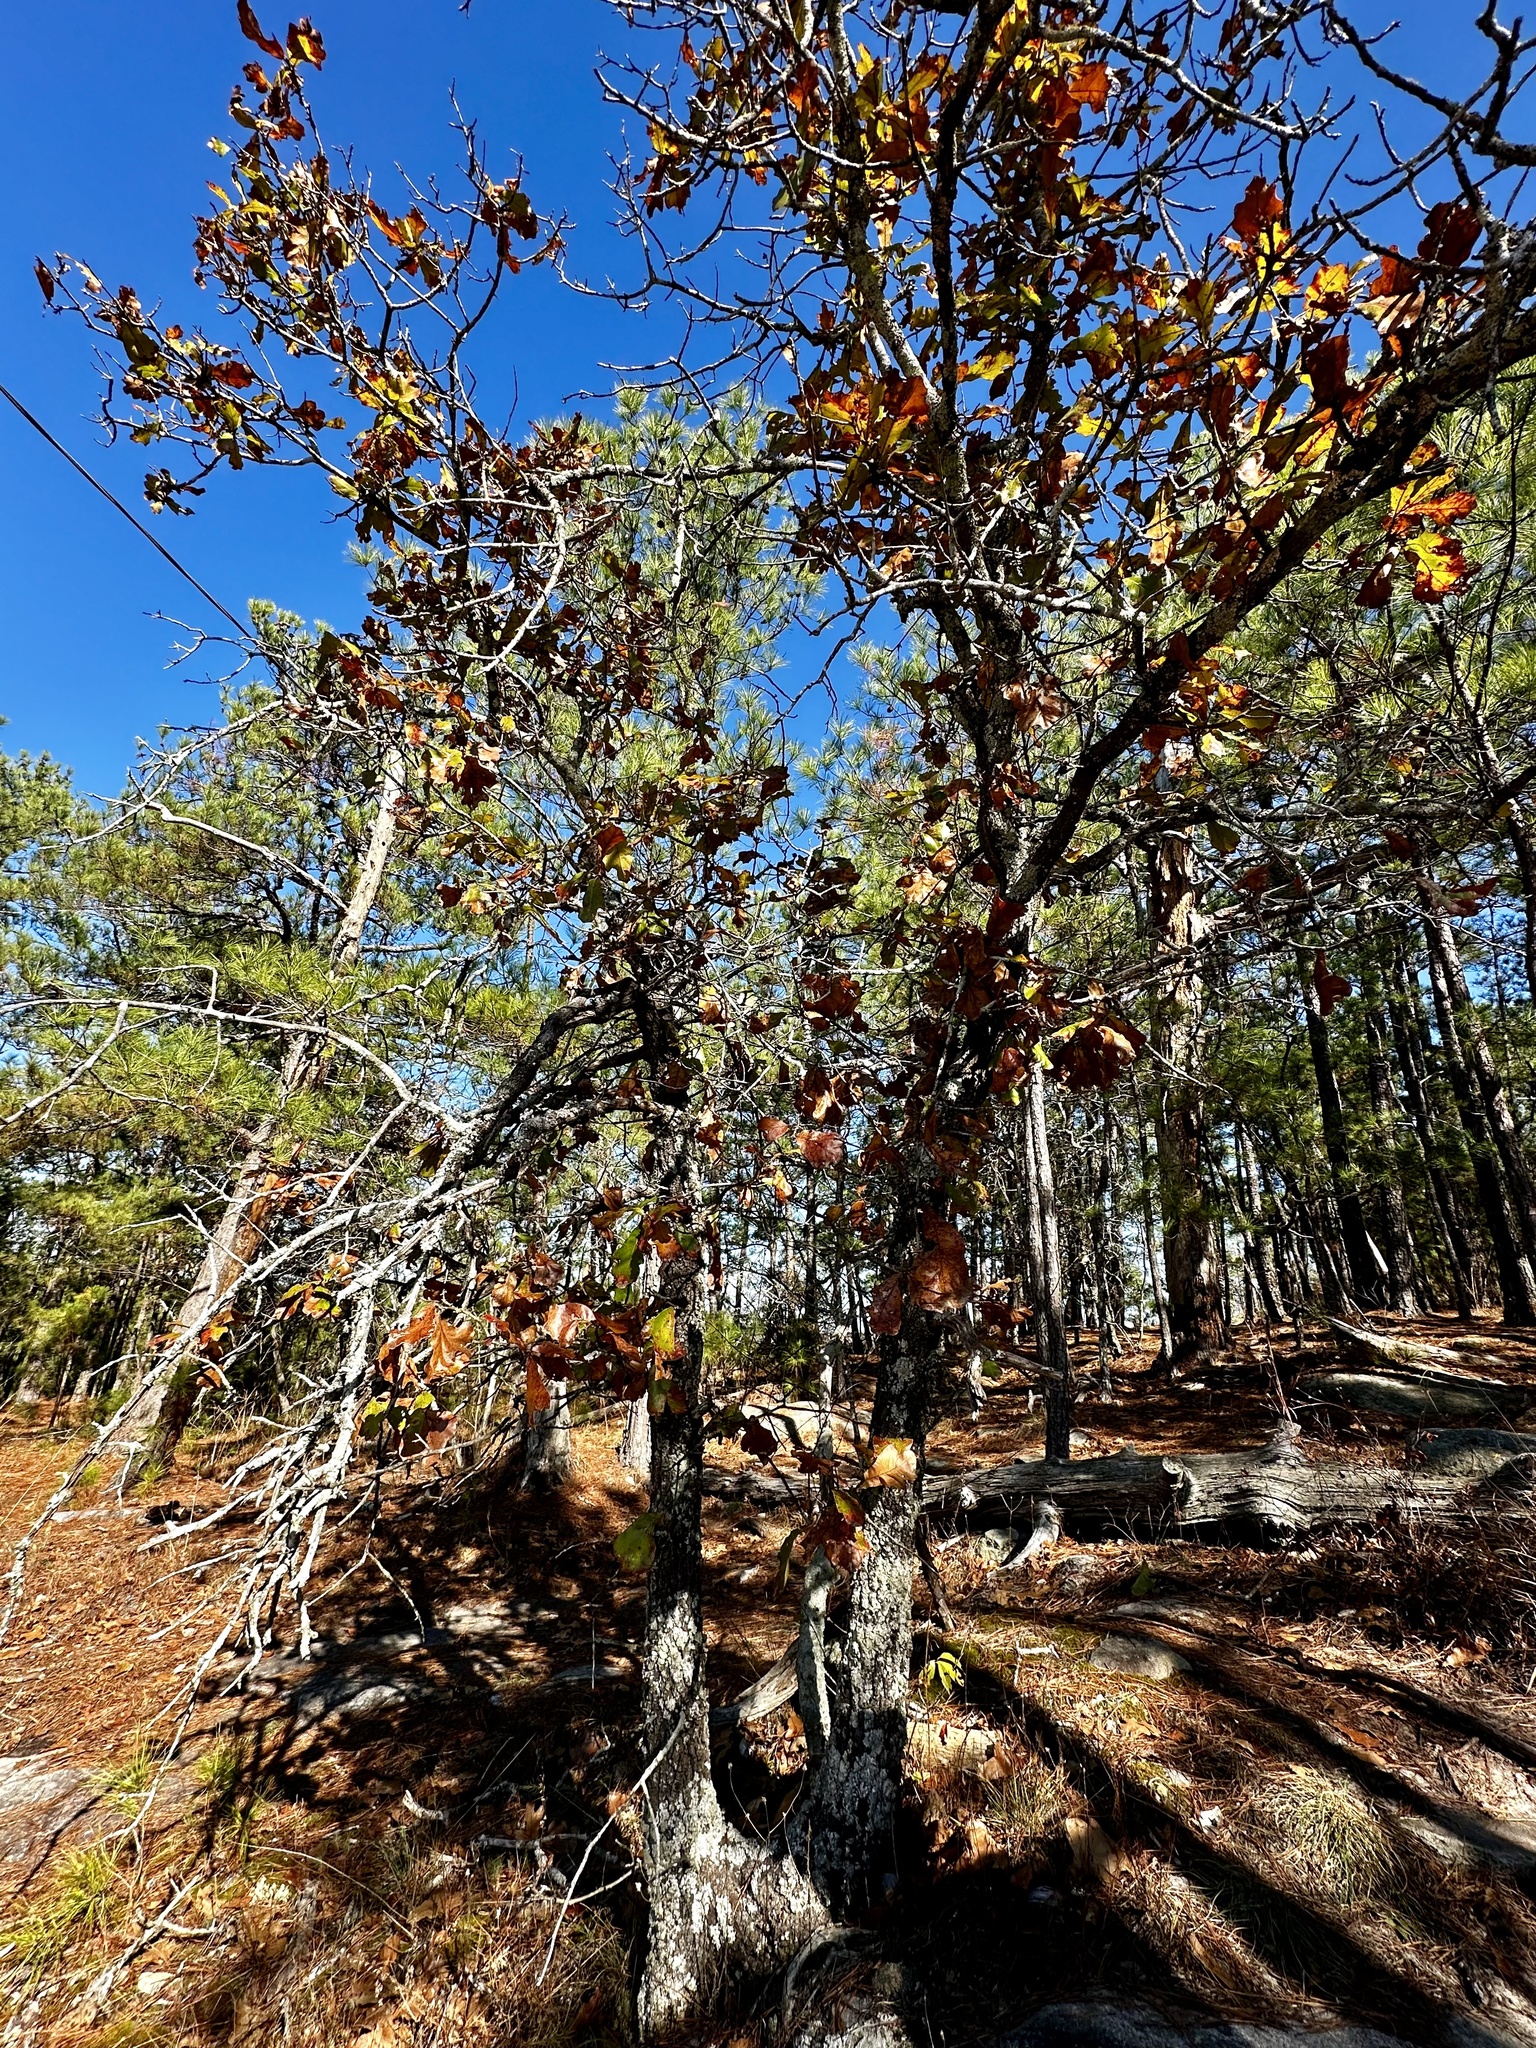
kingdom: Plantae
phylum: Tracheophyta
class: Magnoliopsida
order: Fagales
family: Fagaceae
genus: Quercus
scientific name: Quercus marilandica
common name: Blackjack oak
